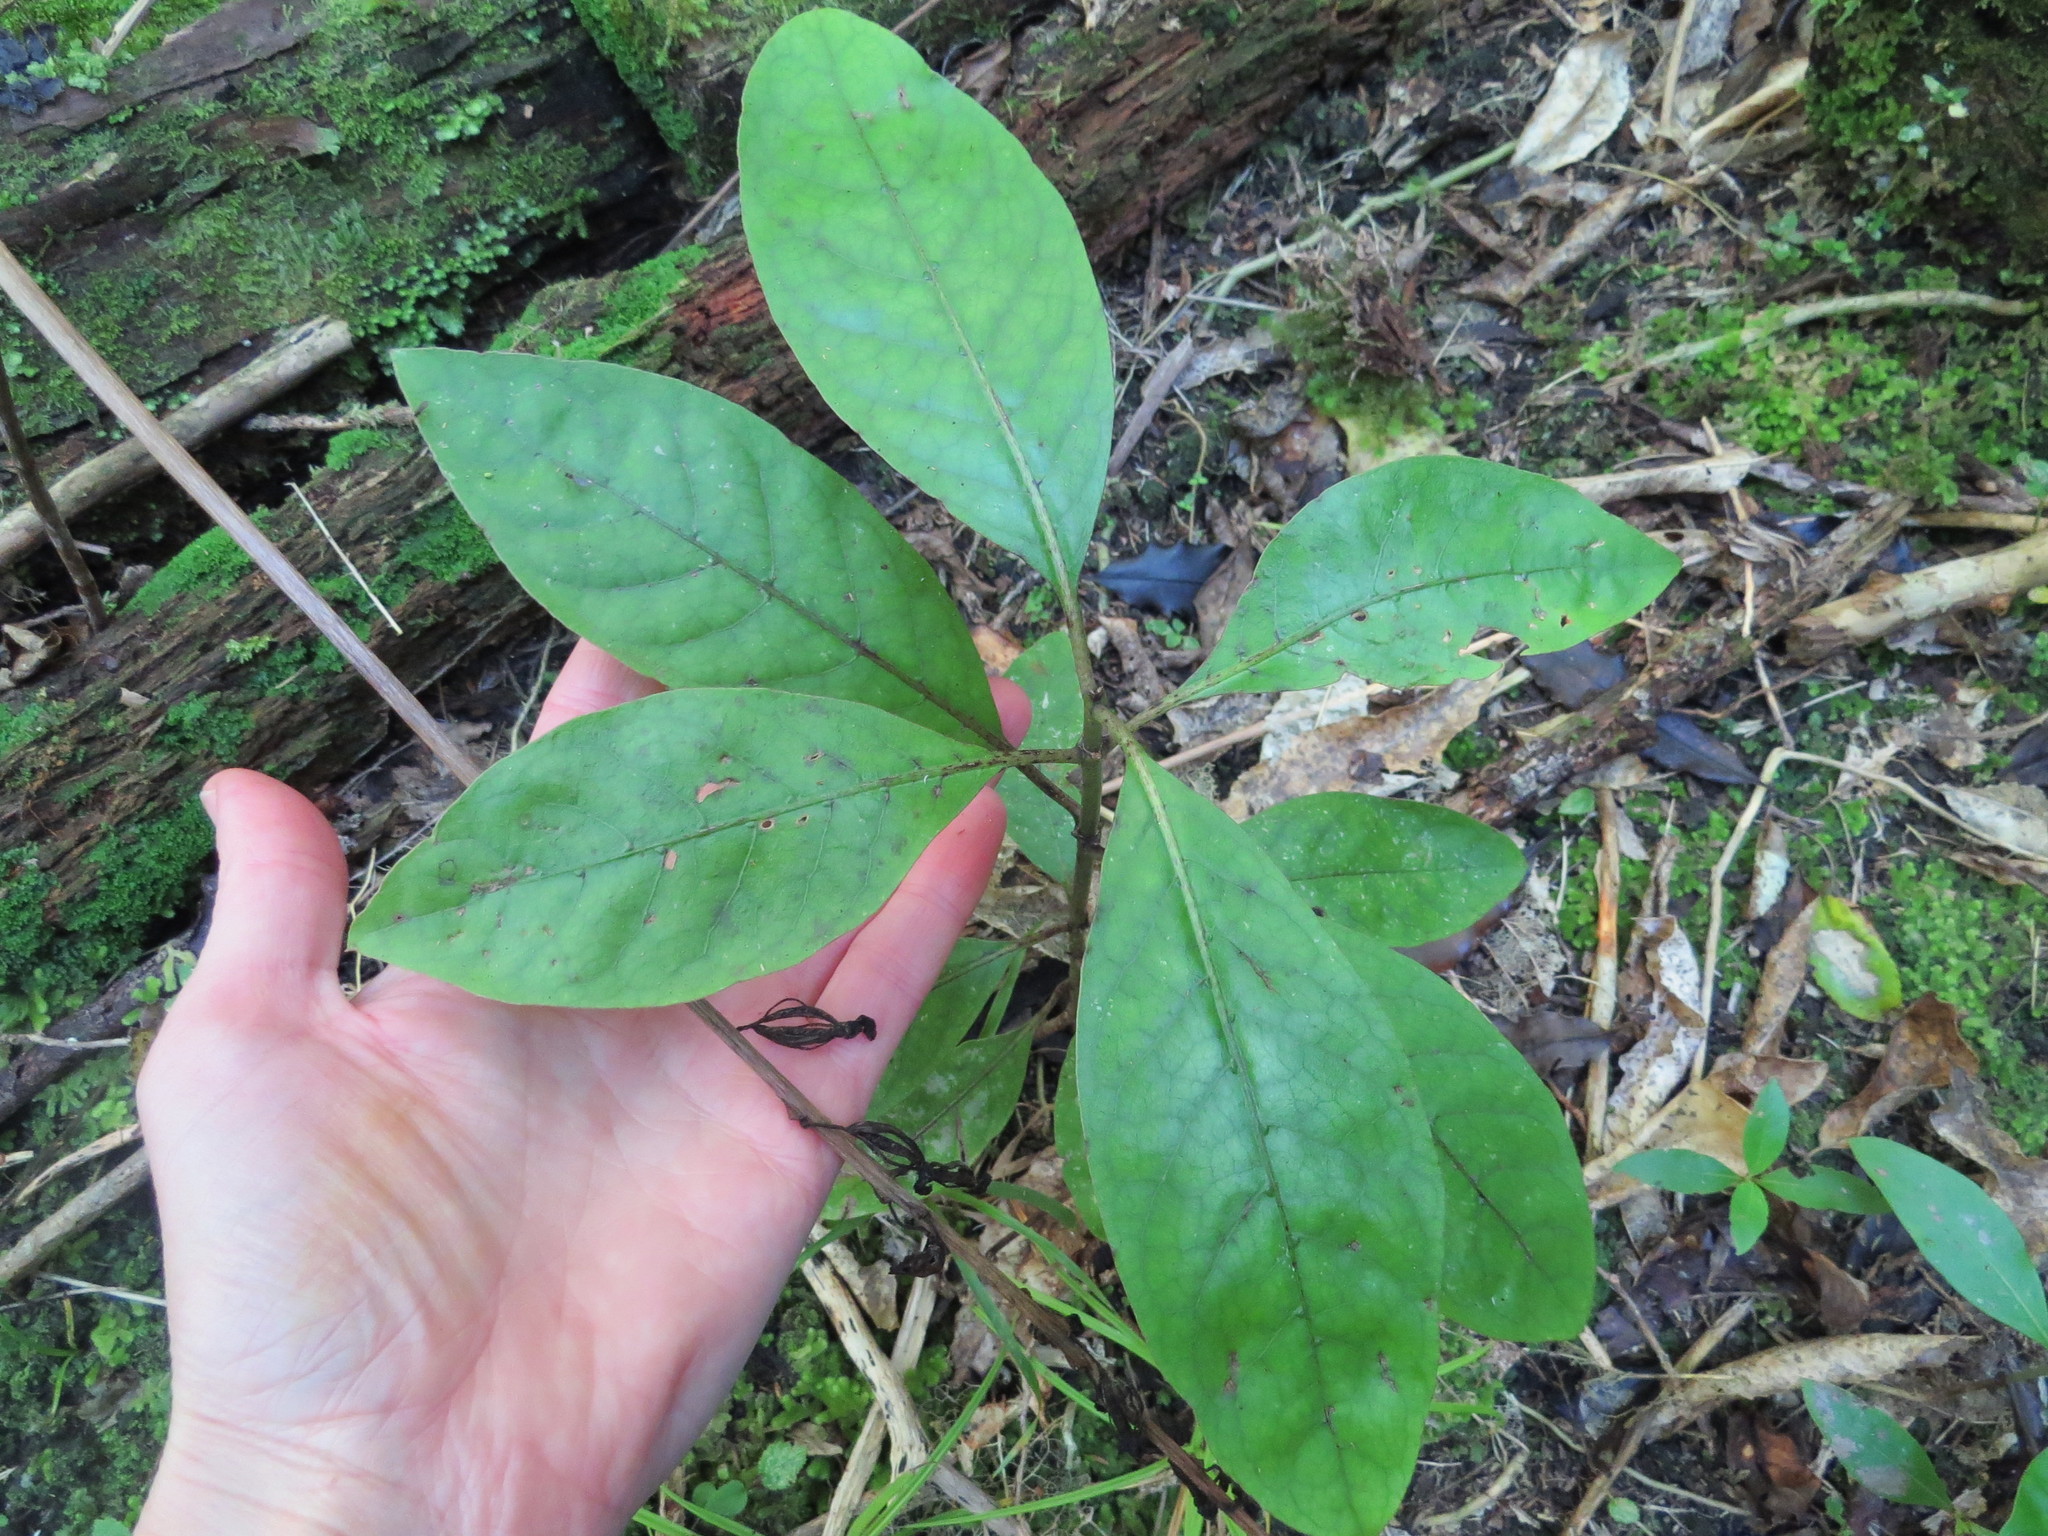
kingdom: Plantae
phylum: Tracheophyta
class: Magnoliopsida
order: Gentianales
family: Rubiaceae
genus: Coprosma
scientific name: Coprosma autumnalis
